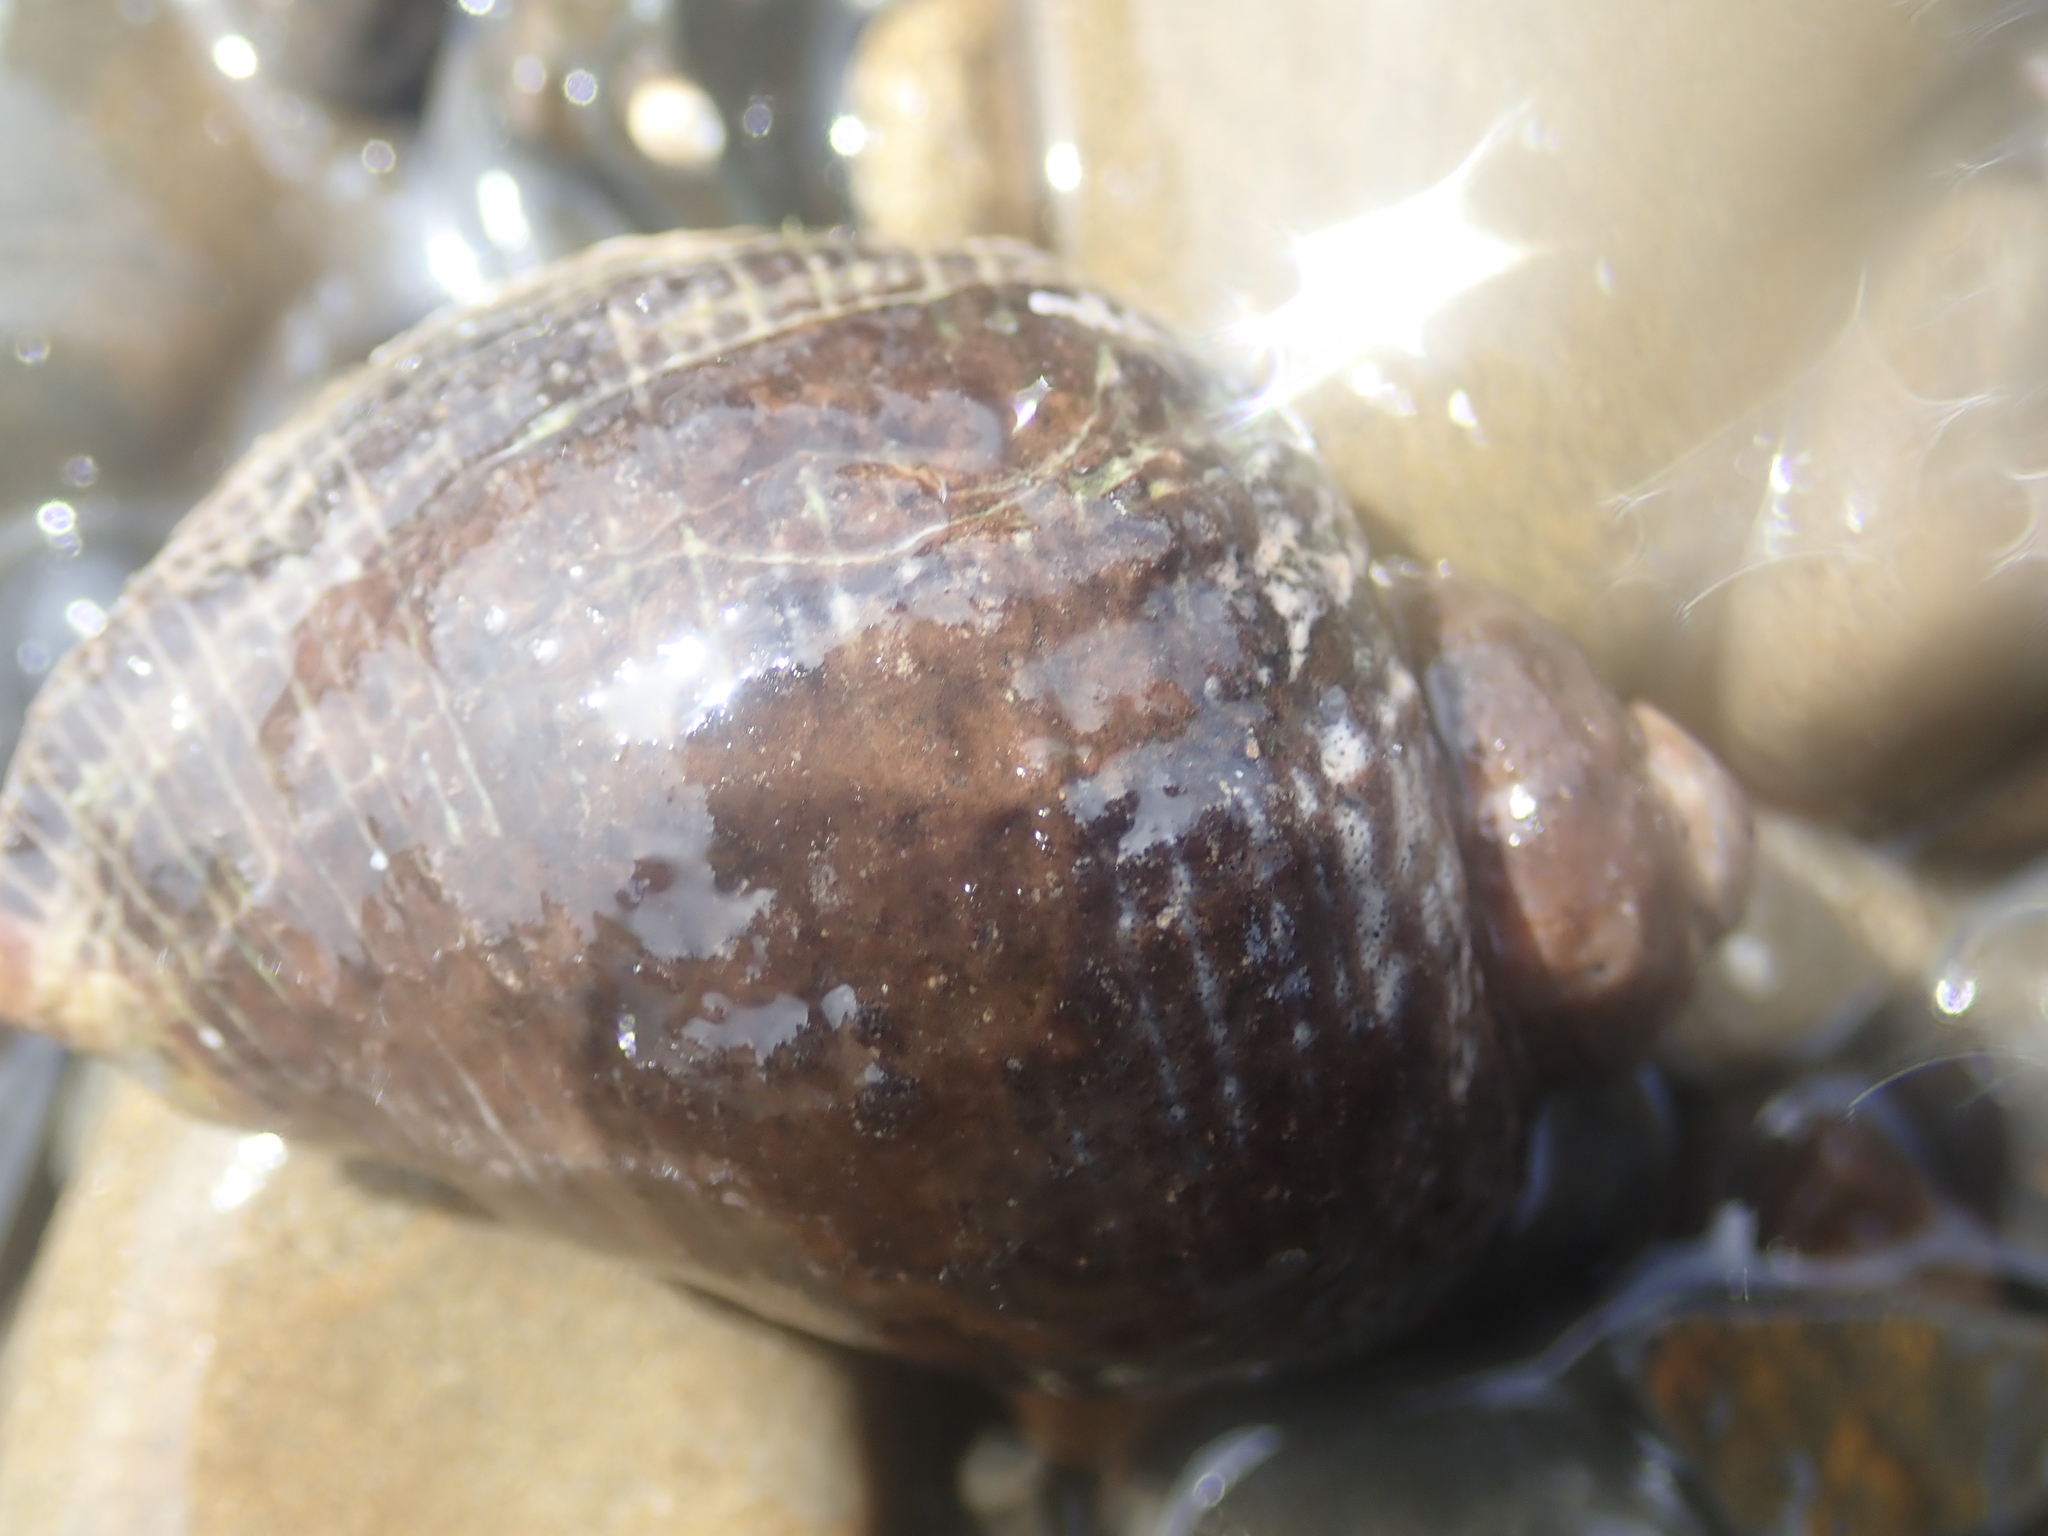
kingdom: Animalia
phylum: Mollusca
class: Gastropoda
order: Neogastropoda
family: Muricidae
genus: Haustrum
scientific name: Haustrum haustorium
